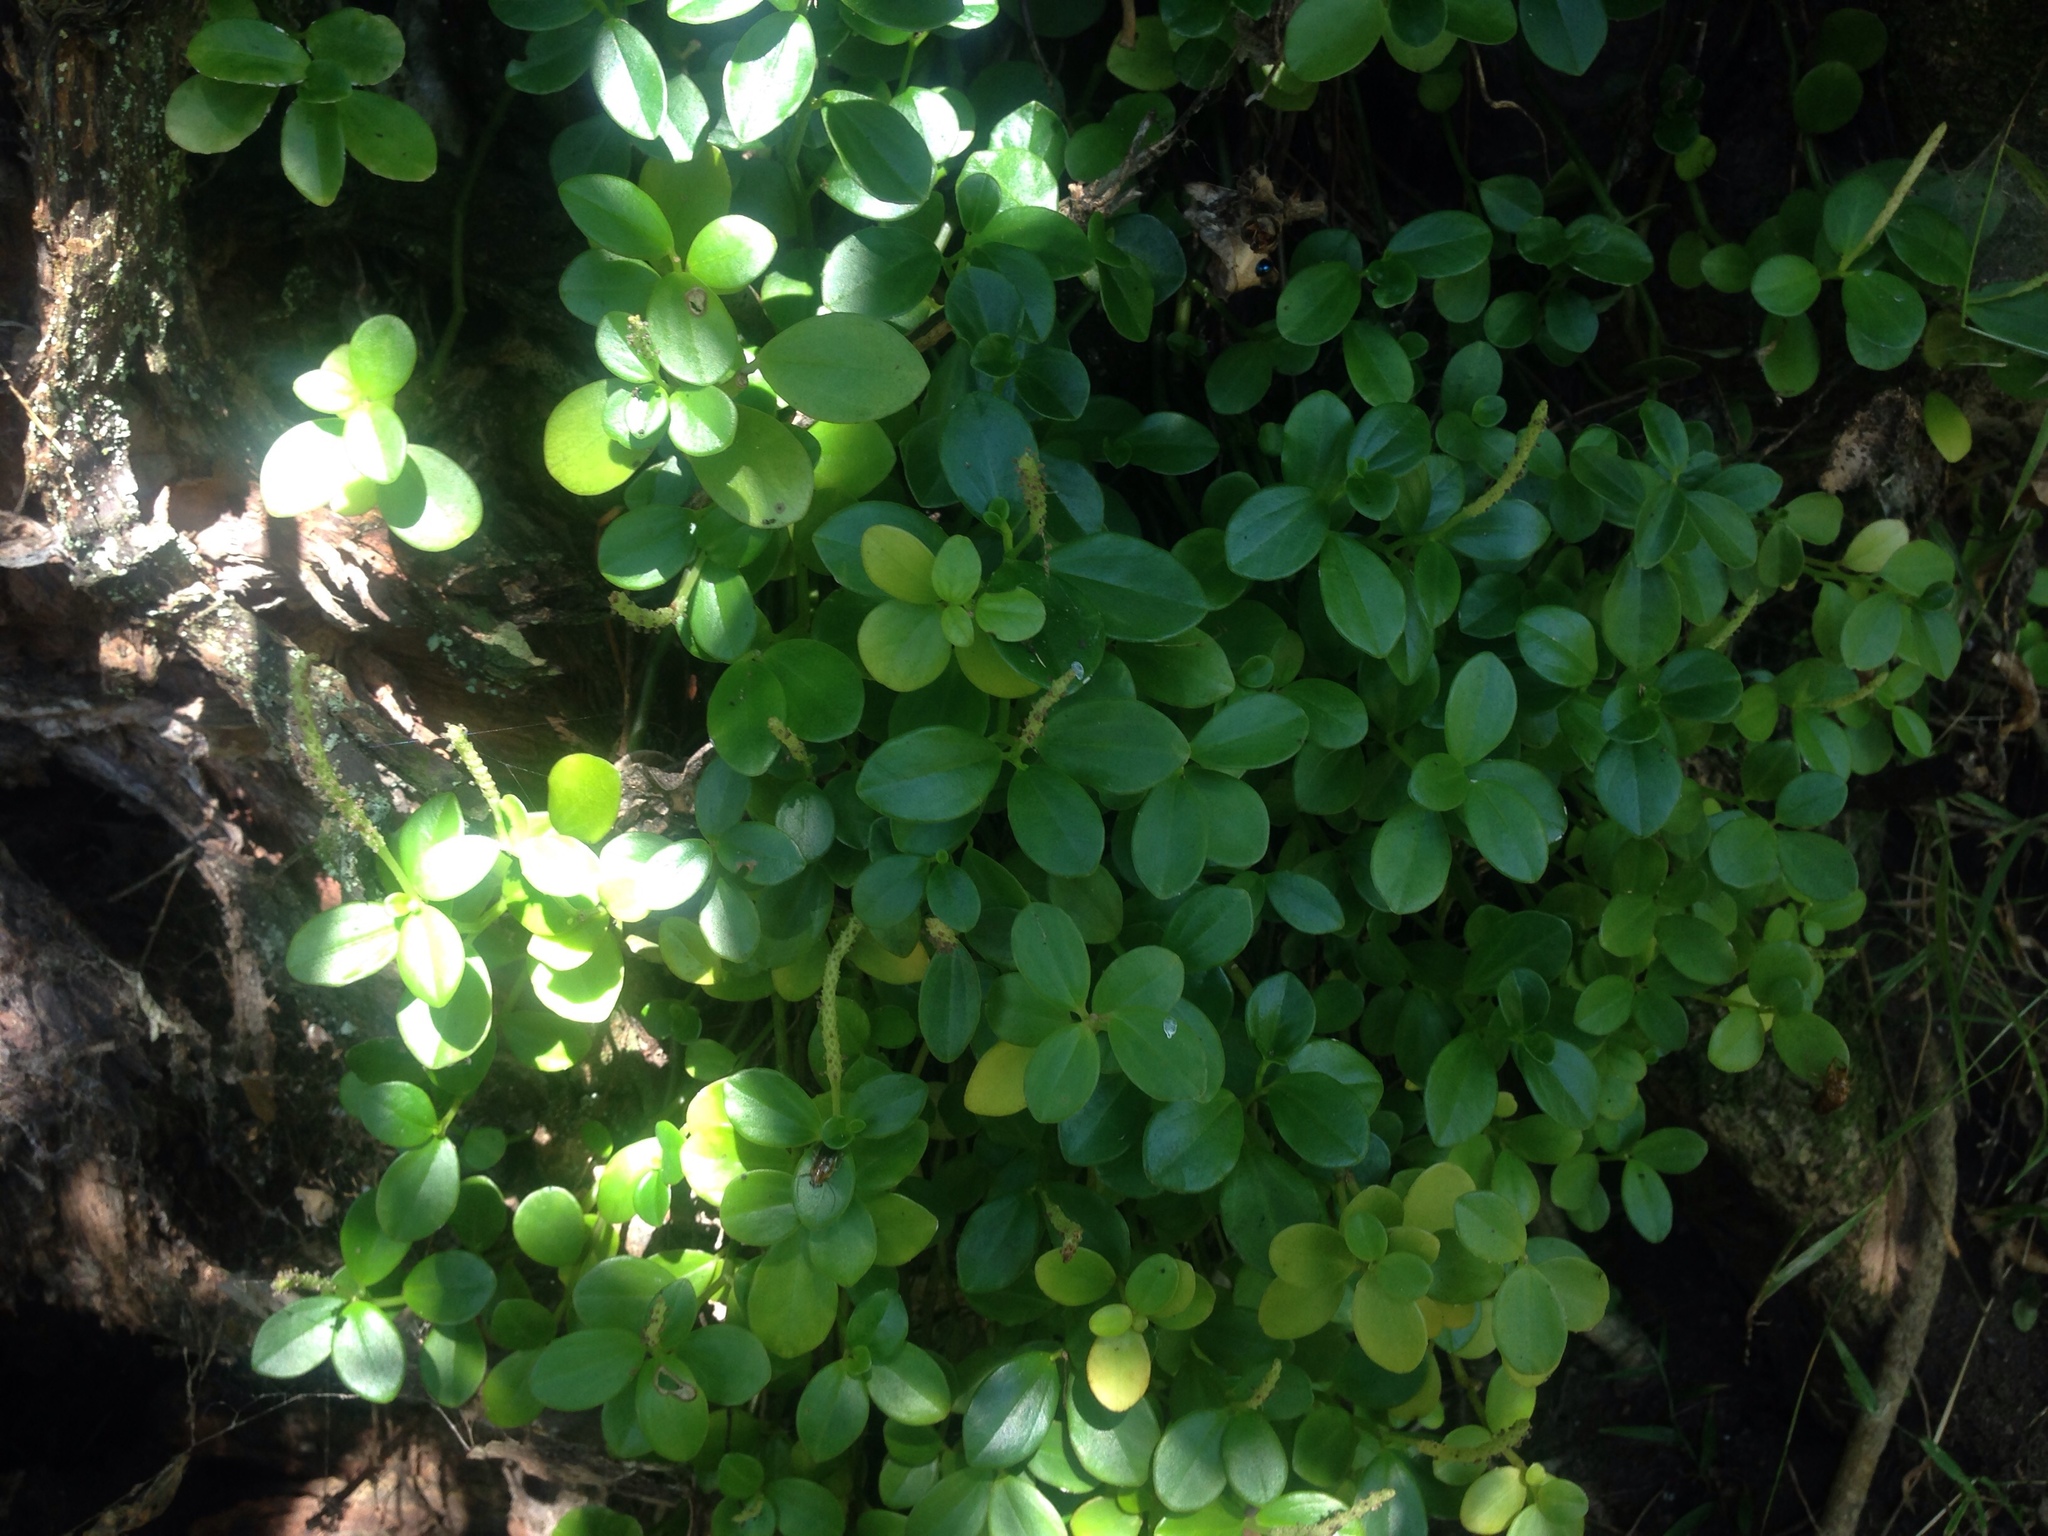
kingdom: Plantae
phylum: Tracheophyta
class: Magnoliopsida
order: Piperales
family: Piperaceae
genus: Peperomia
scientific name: Peperomia urvilleana
